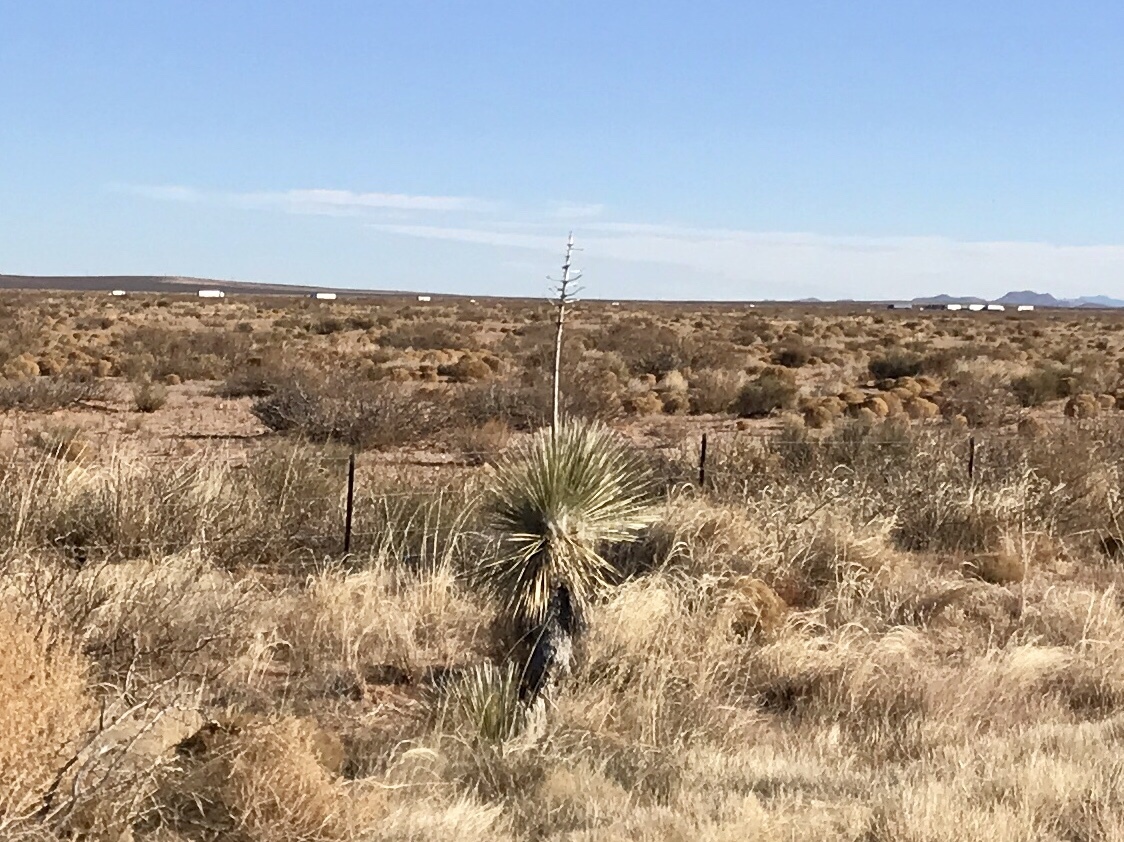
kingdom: Plantae
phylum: Tracheophyta
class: Liliopsida
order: Asparagales
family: Asparagaceae
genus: Yucca
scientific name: Yucca elata
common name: Palmella
